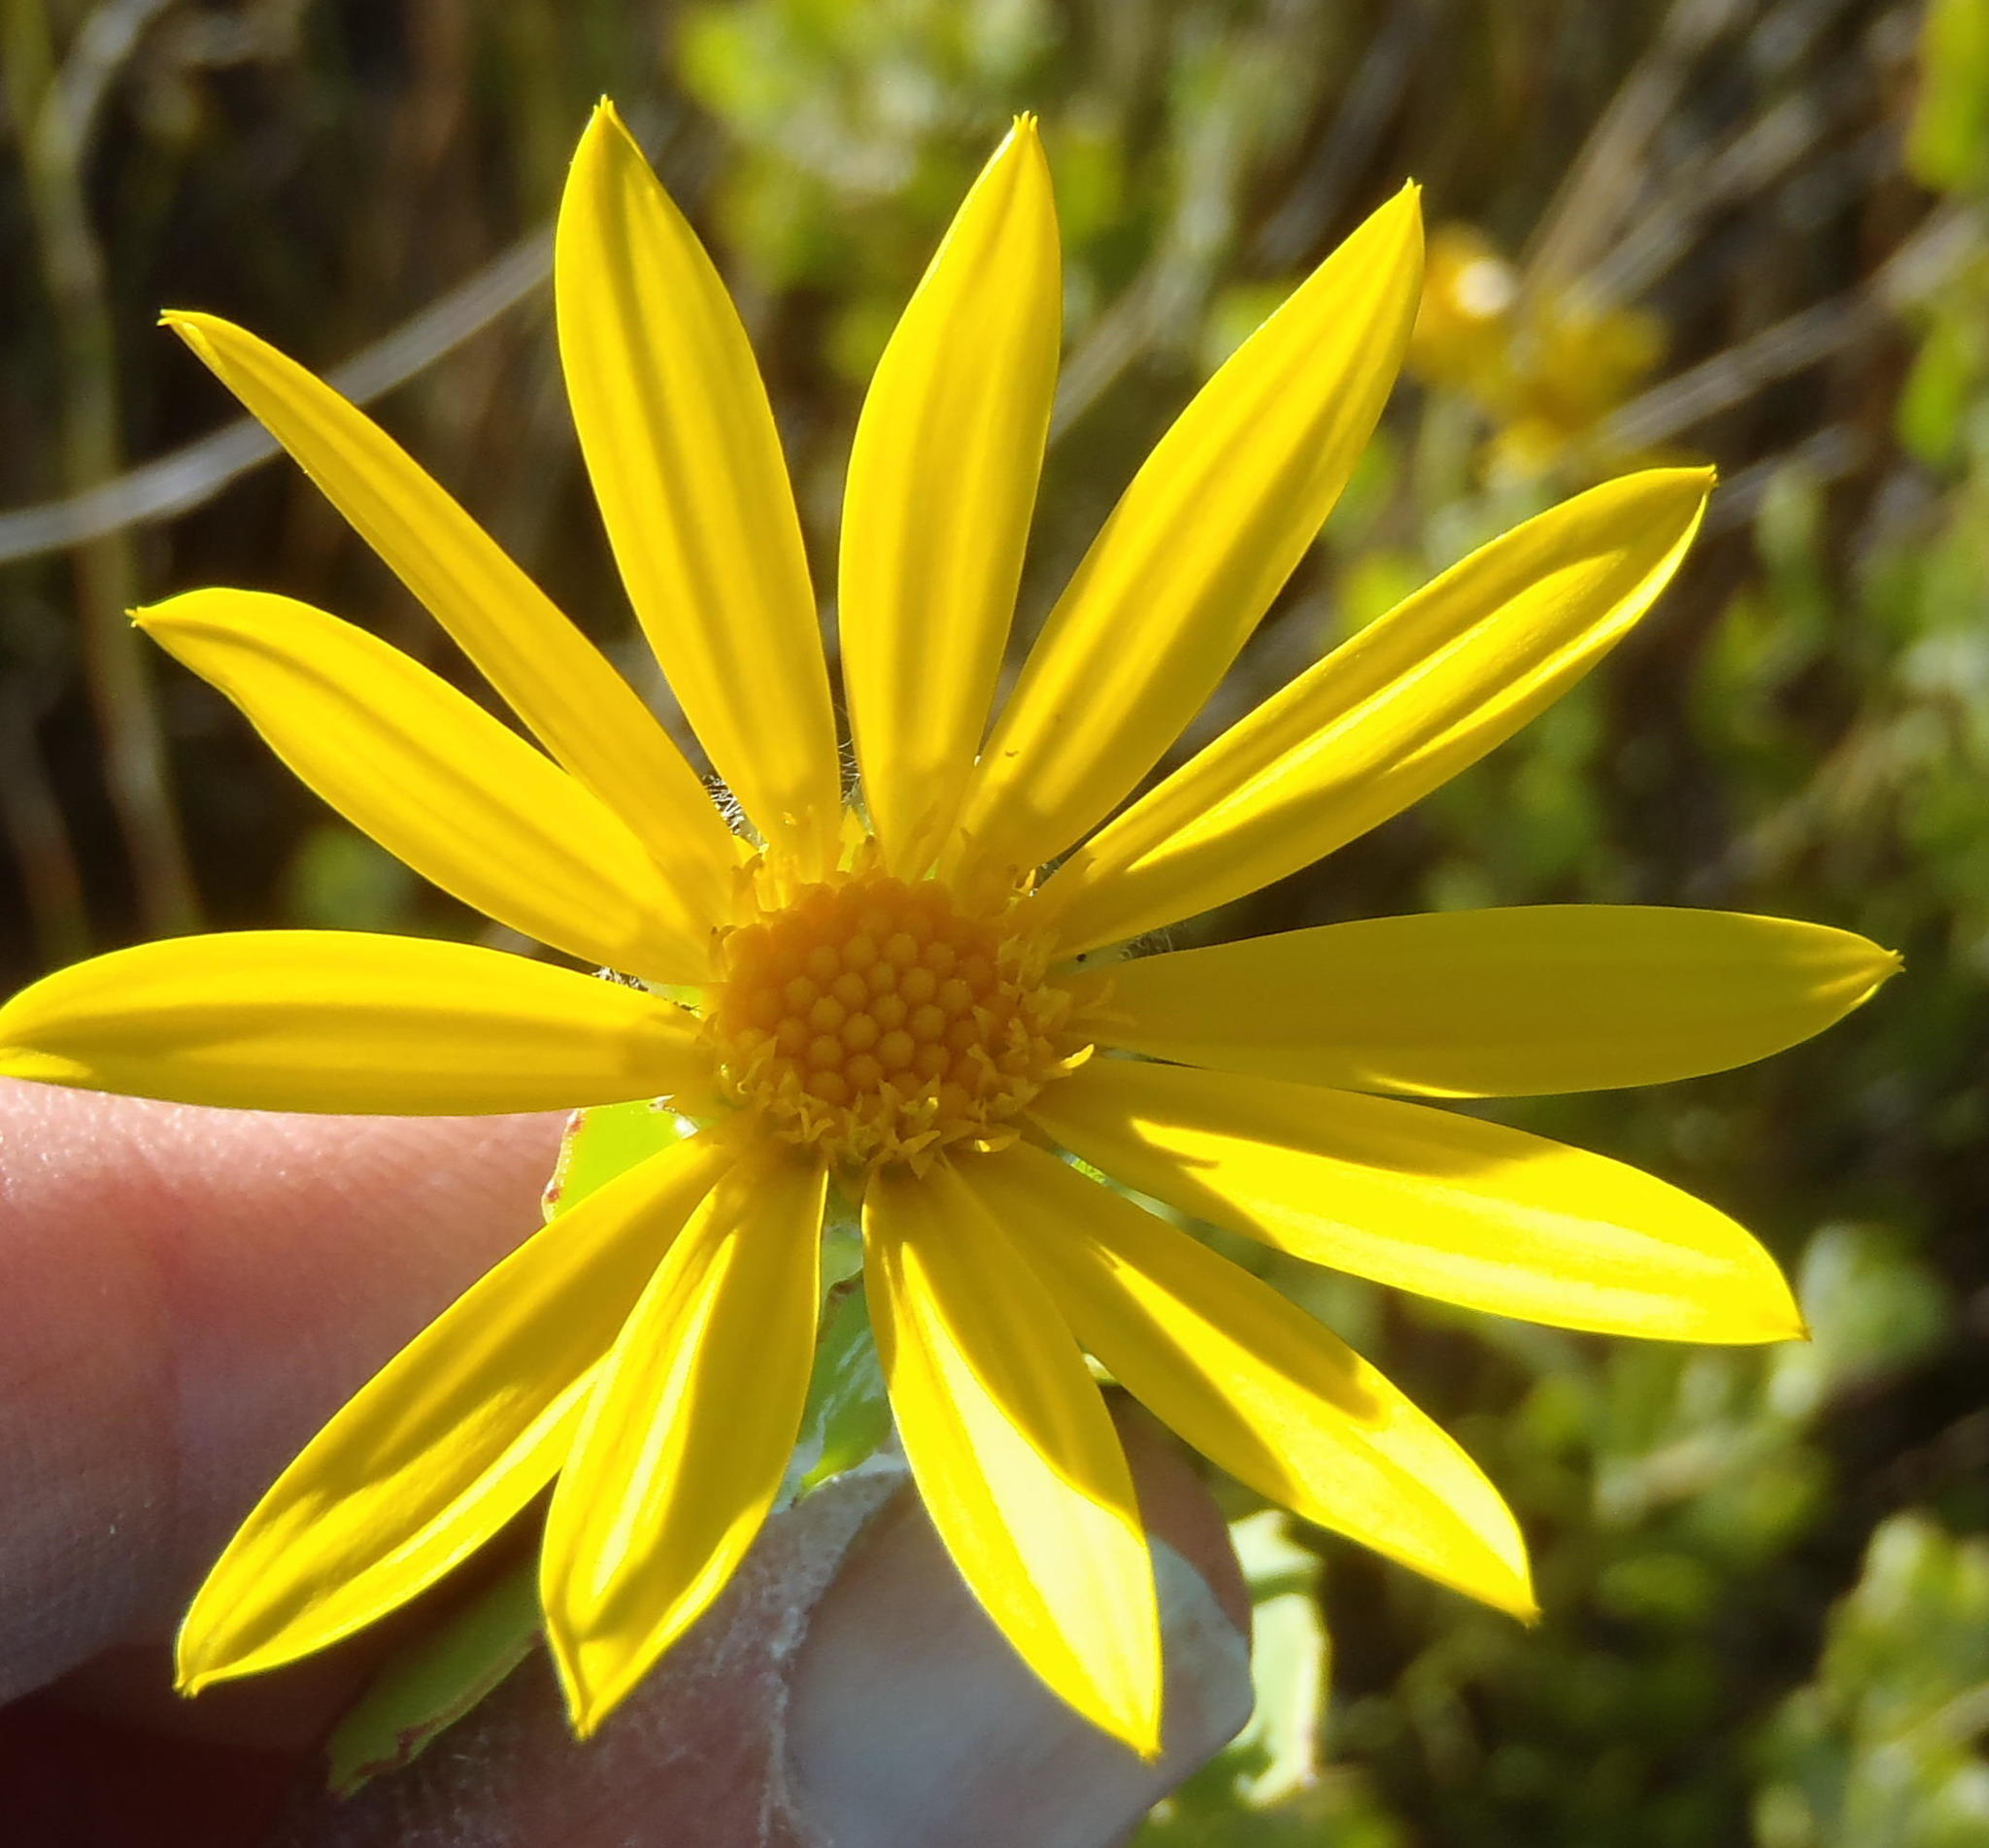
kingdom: Plantae
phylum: Tracheophyta
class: Magnoliopsida
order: Asterales
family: Asteraceae
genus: Osteospermum
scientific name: Osteospermum moniliferum
